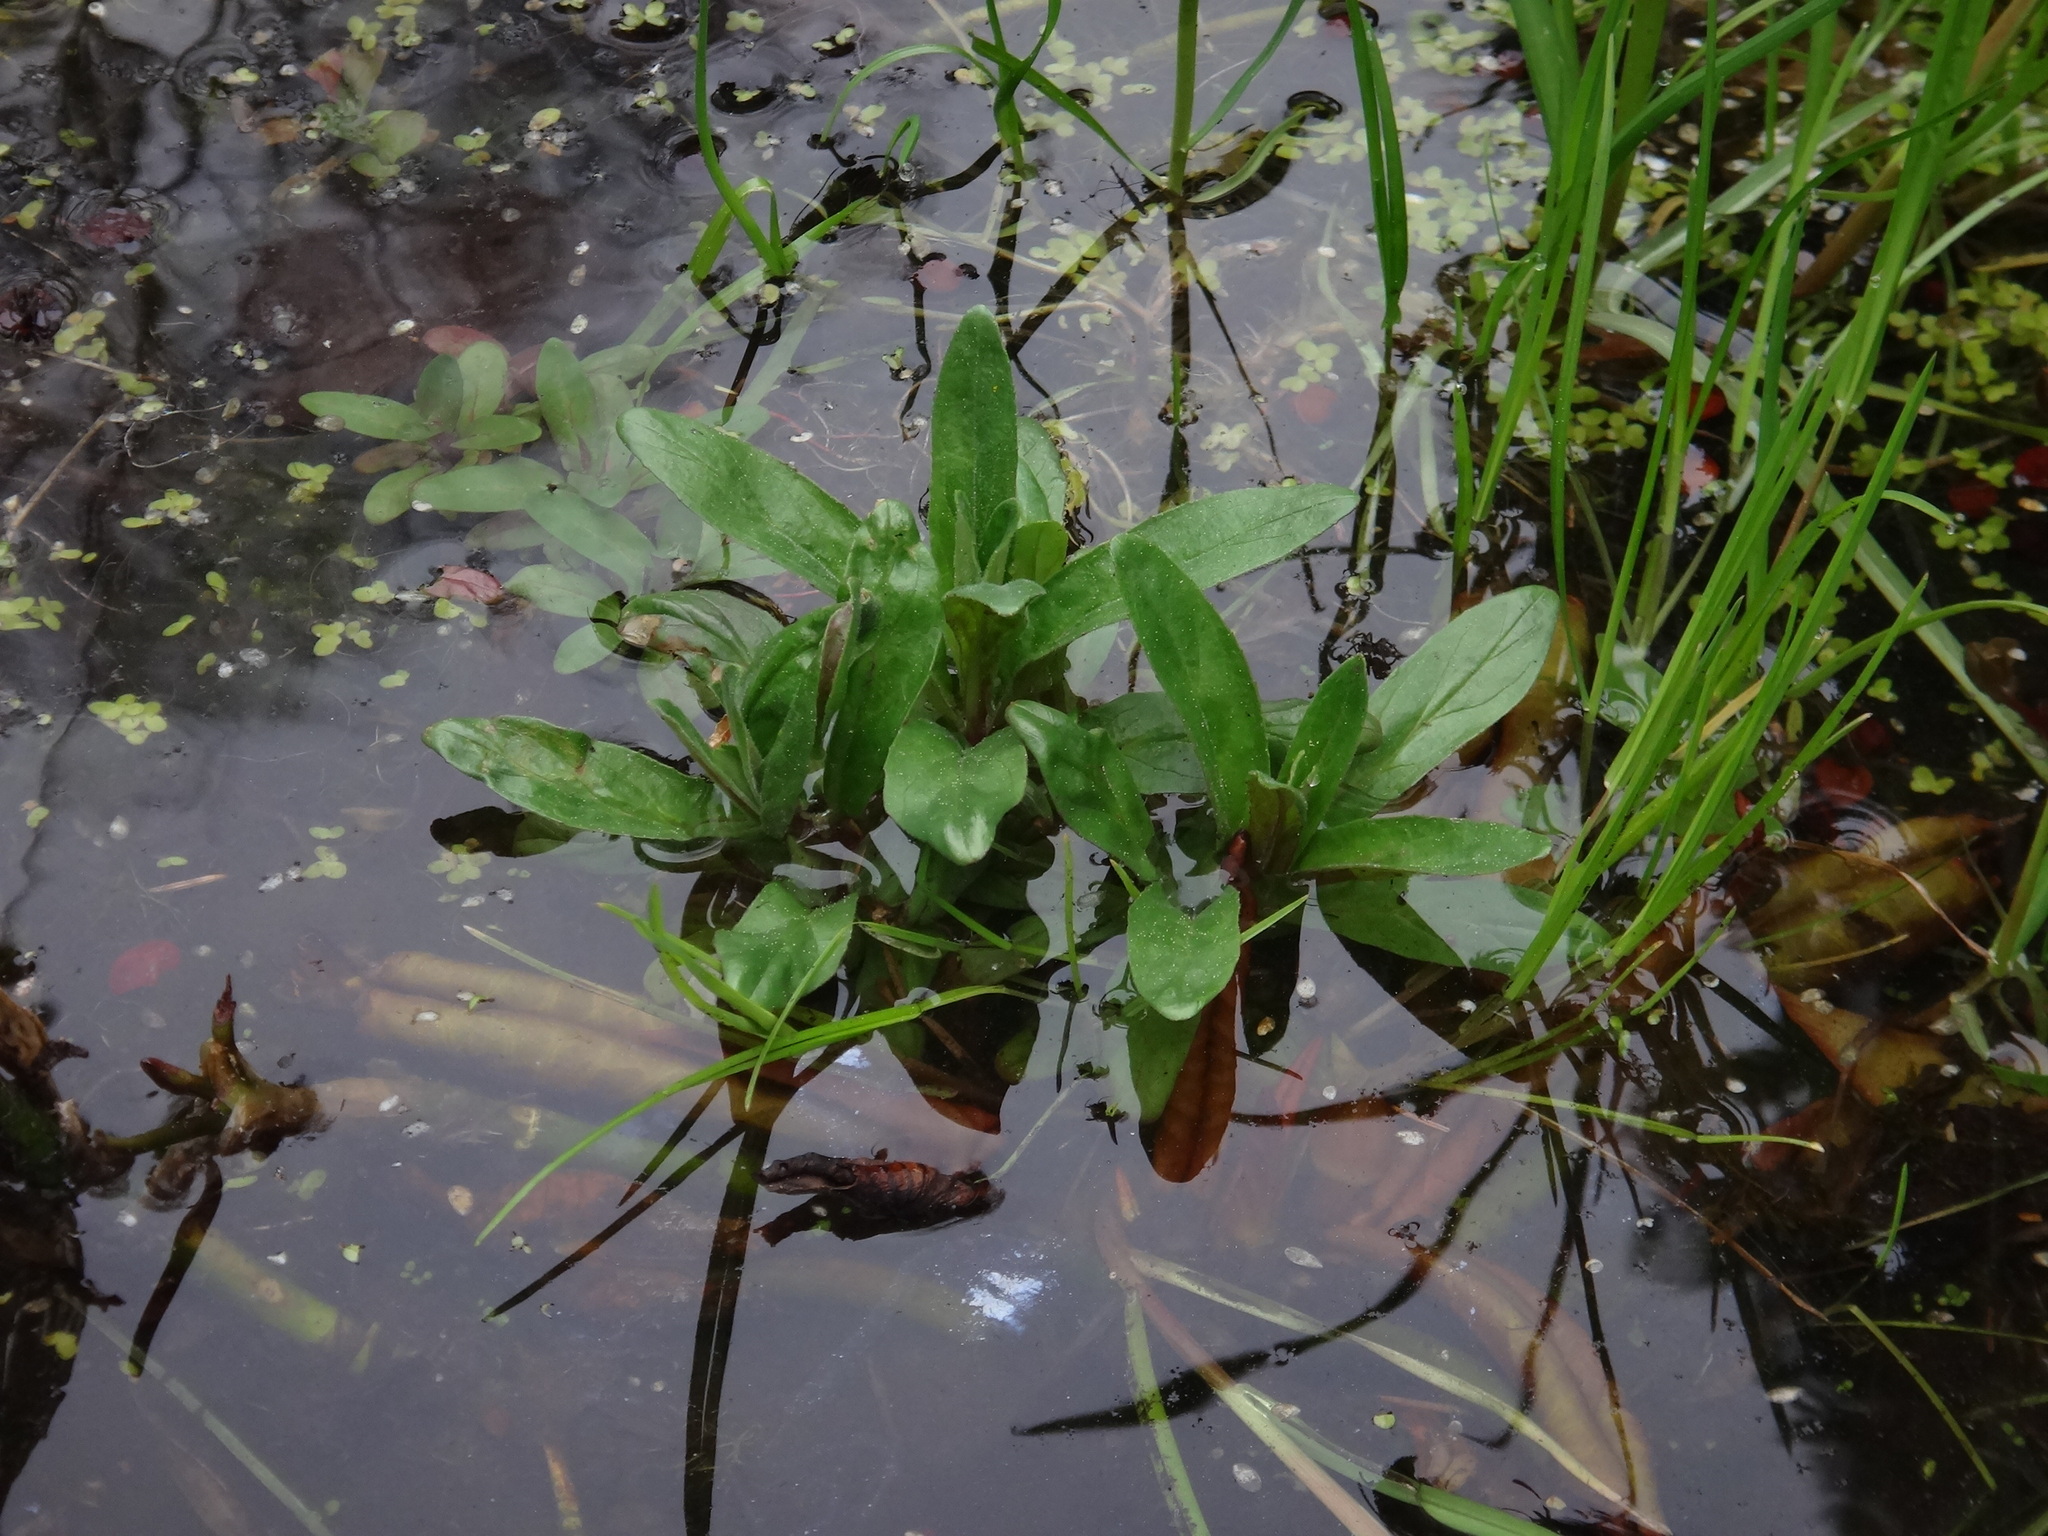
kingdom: Plantae
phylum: Tracheophyta
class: Magnoliopsida
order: Myrtales
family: Onagraceae
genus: Epilobium
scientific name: Epilobium hirsutum
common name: Great willowherb
